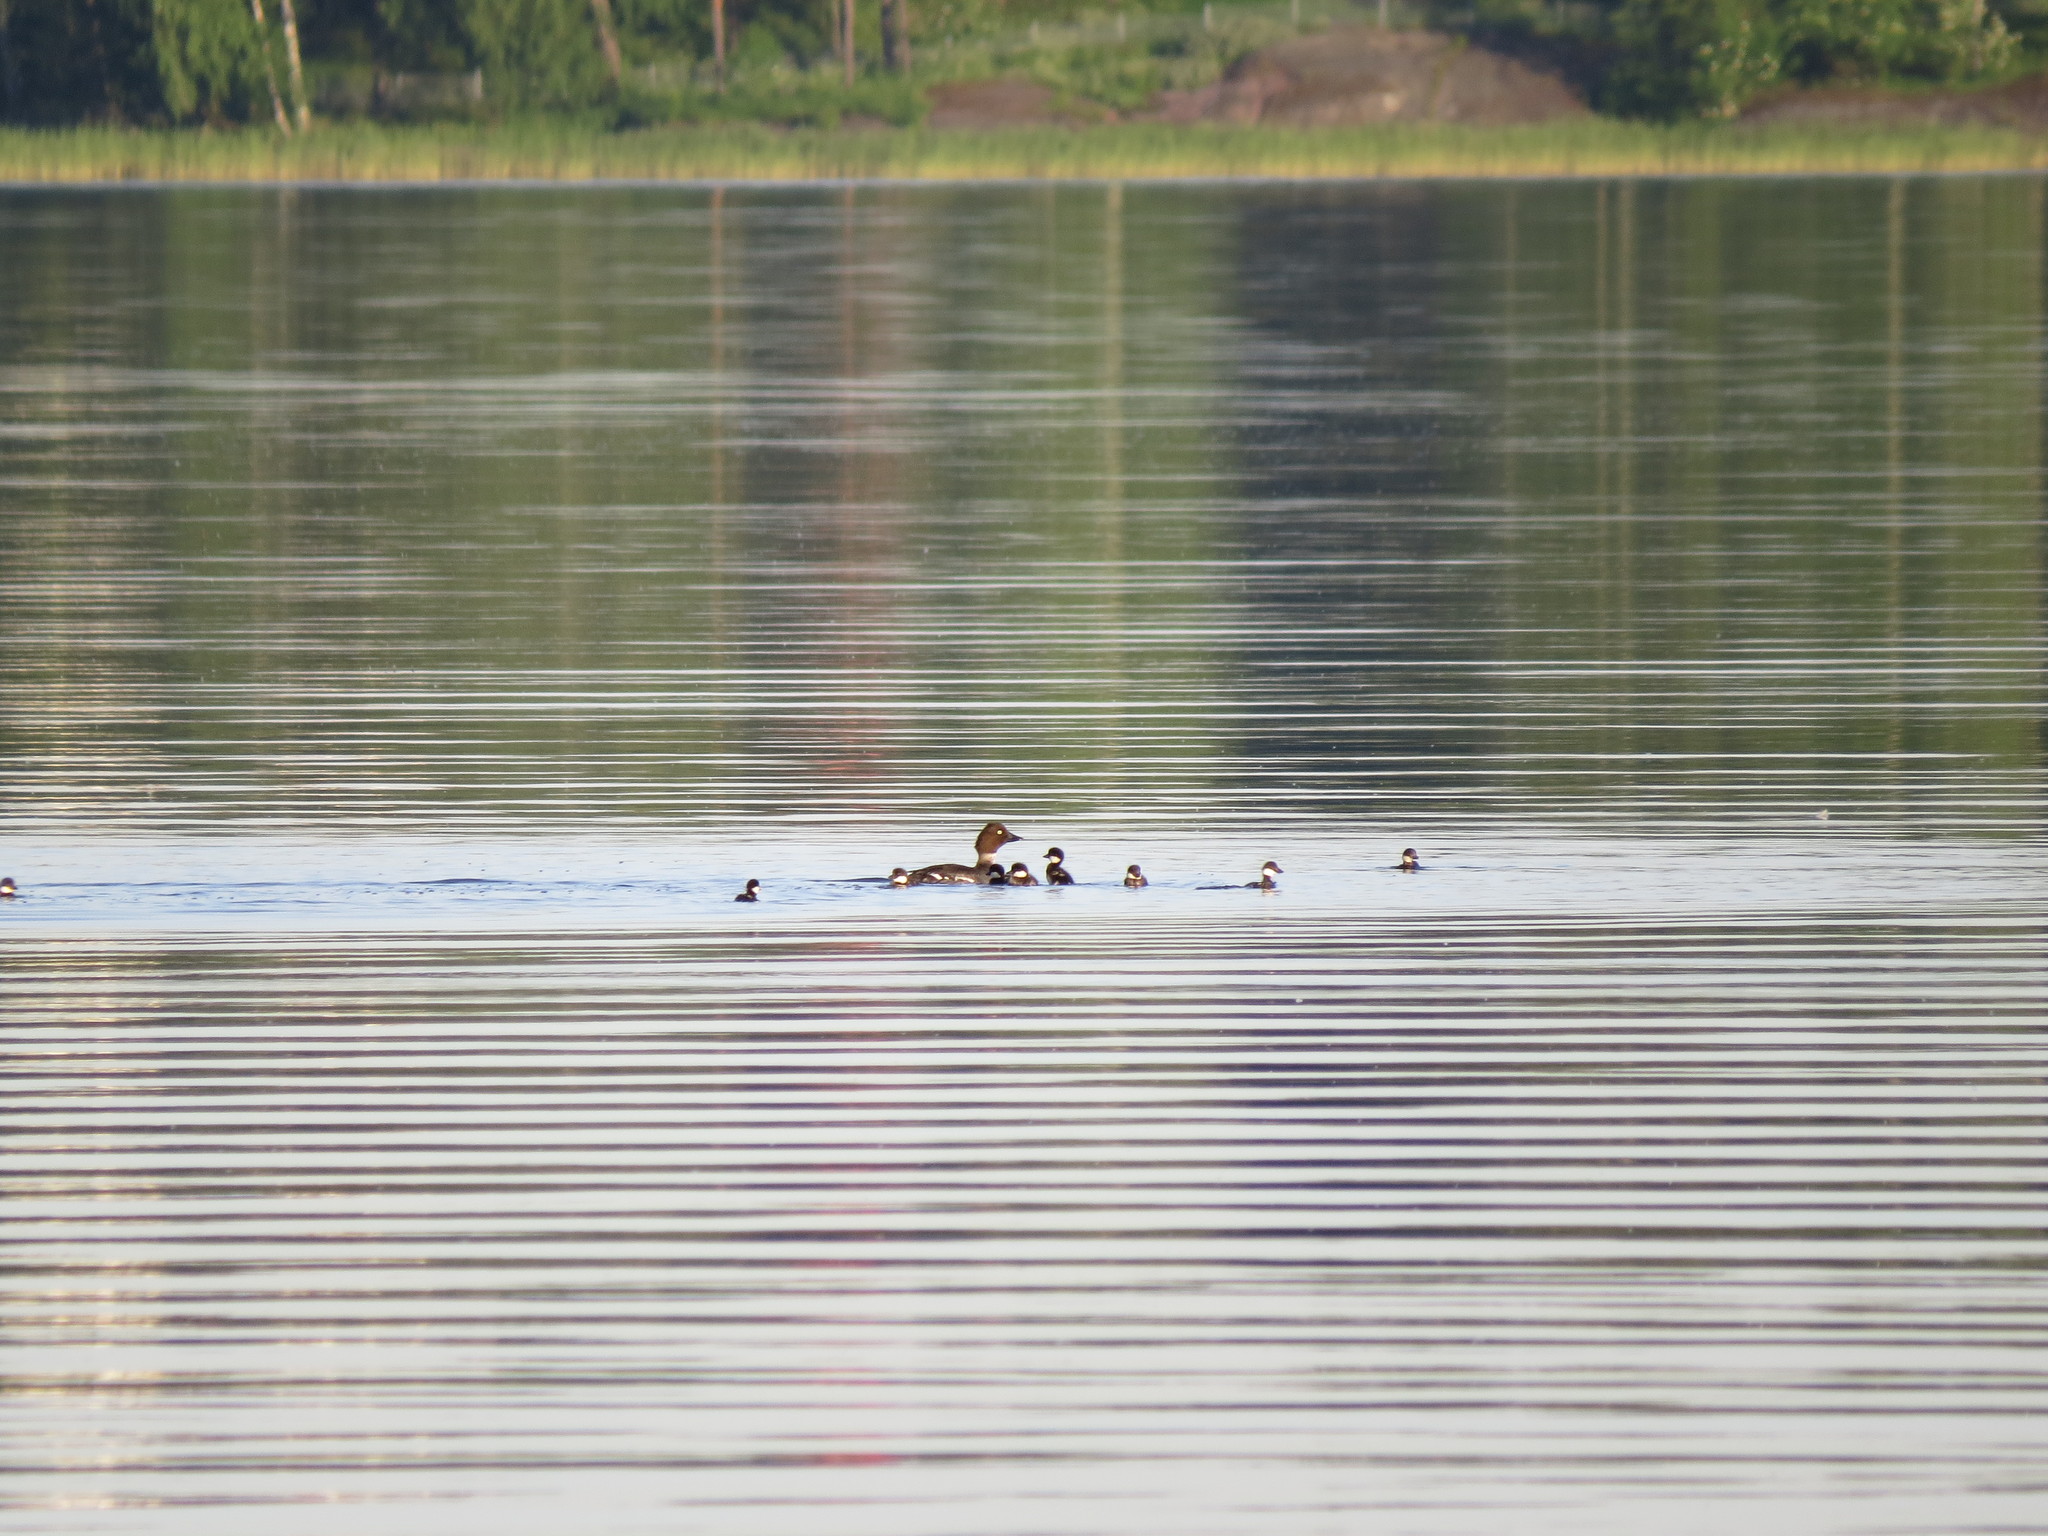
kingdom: Animalia
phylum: Chordata
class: Aves
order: Anseriformes
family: Anatidae
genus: Bucephala
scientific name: Bucephala clangula
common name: Common goldeneye
